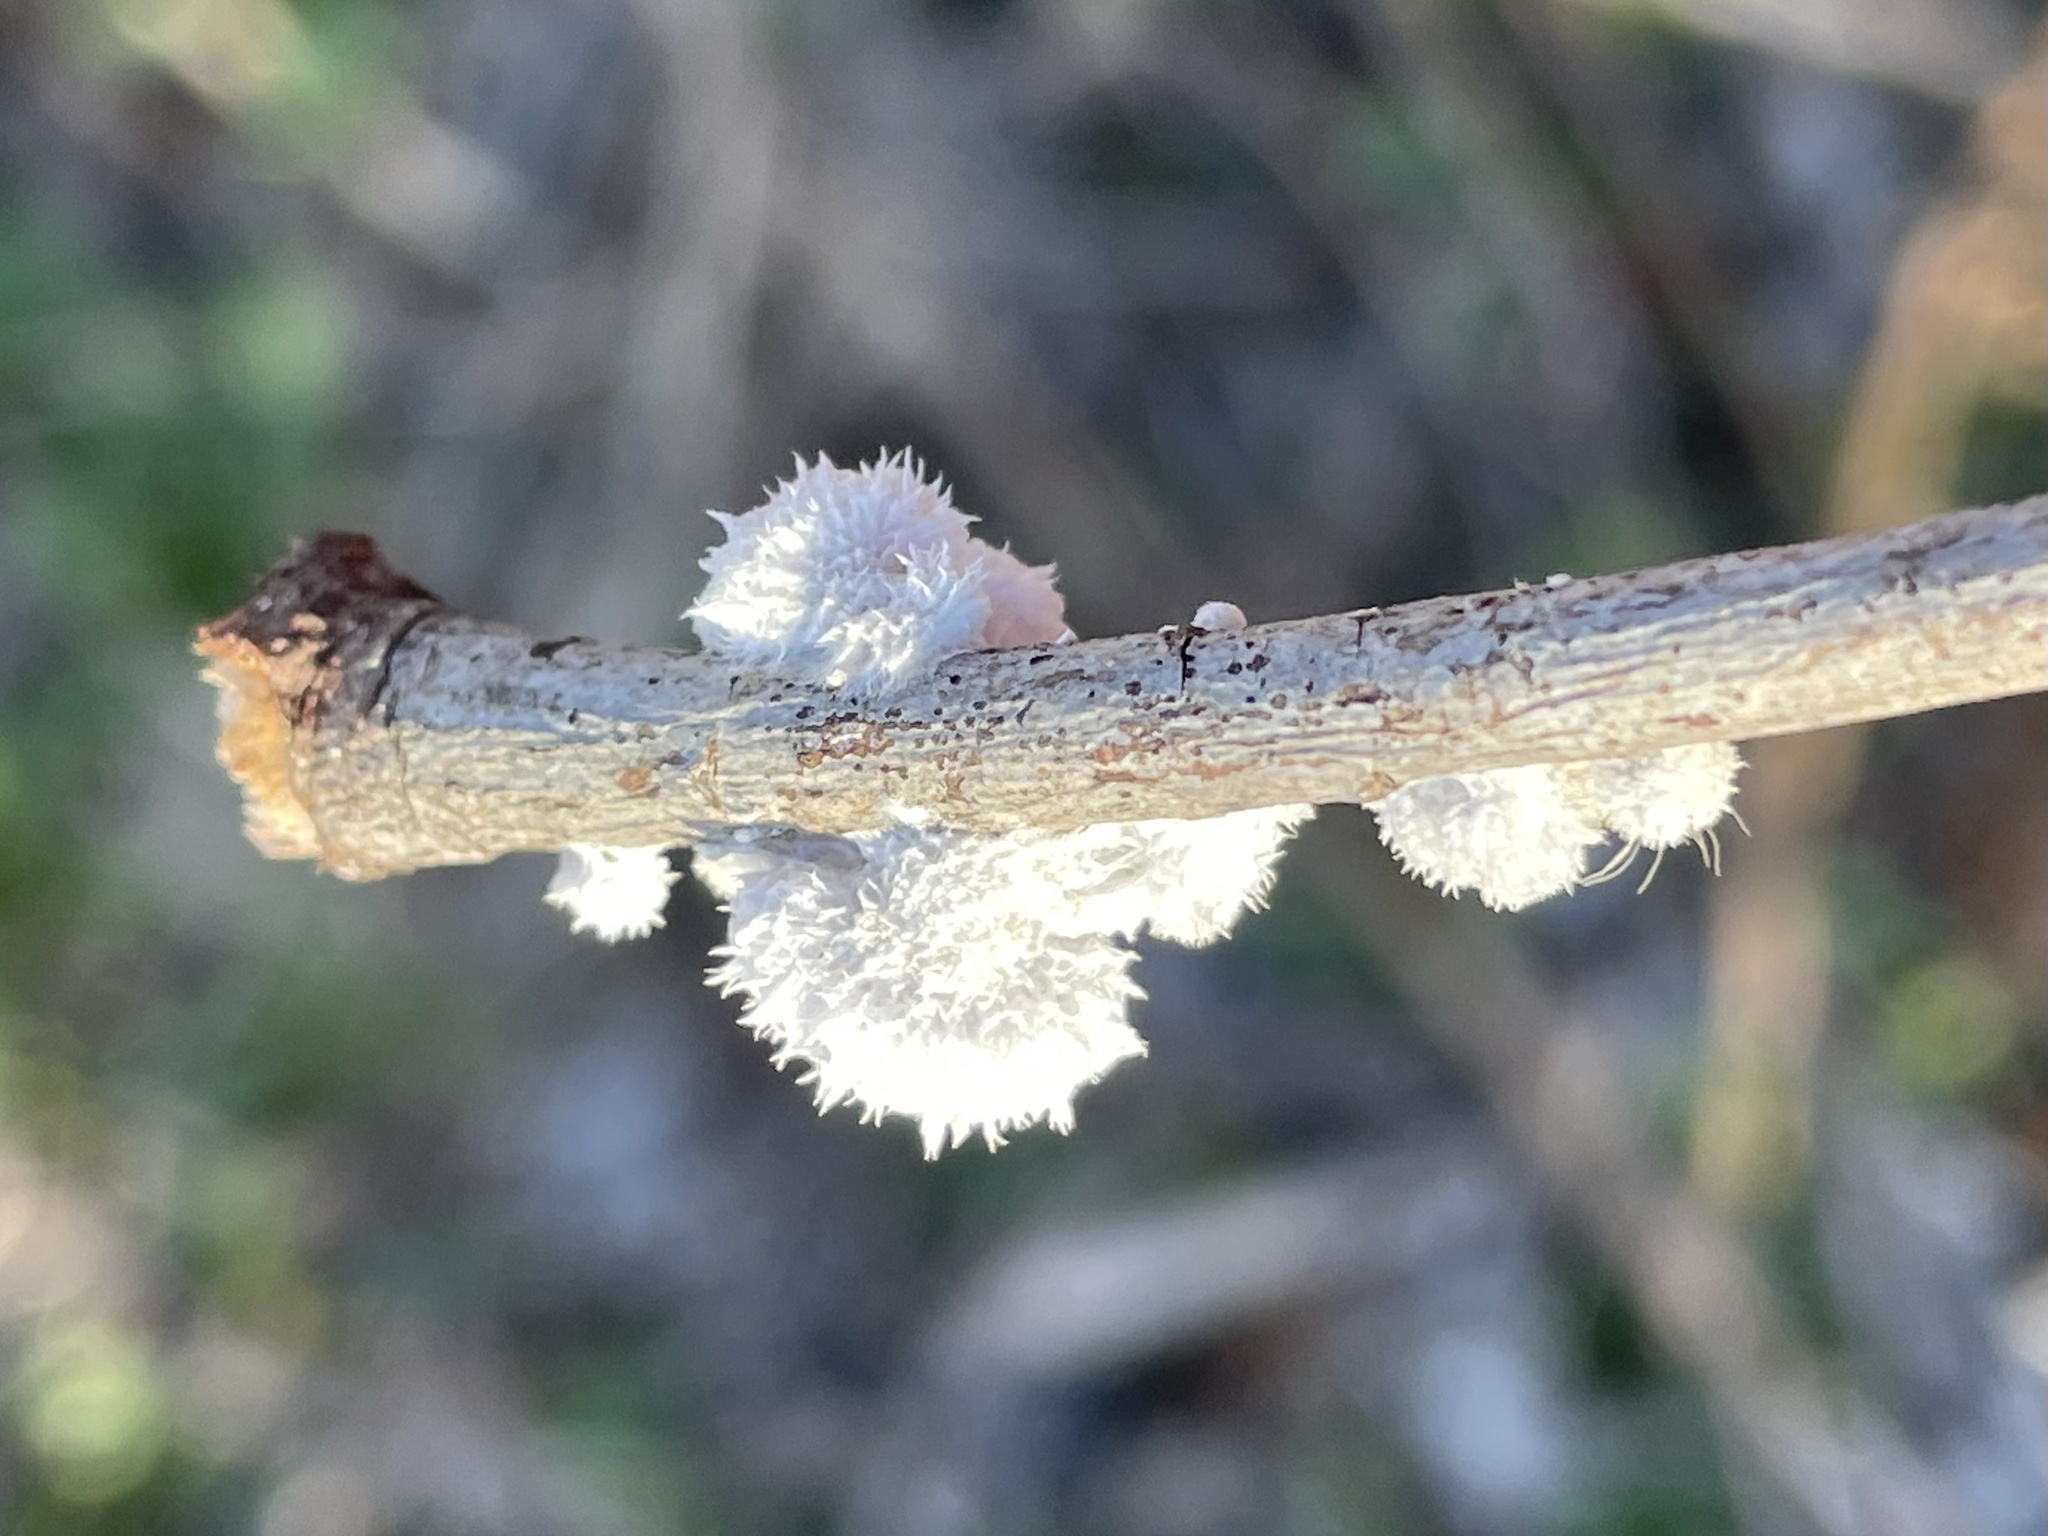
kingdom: Fungi
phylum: Basidiomycota
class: Agaricomycetes
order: Agaricales
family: Schizophyllaceae
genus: Schizophyllum
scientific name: Schizophyllum commune
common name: Common porecrust
